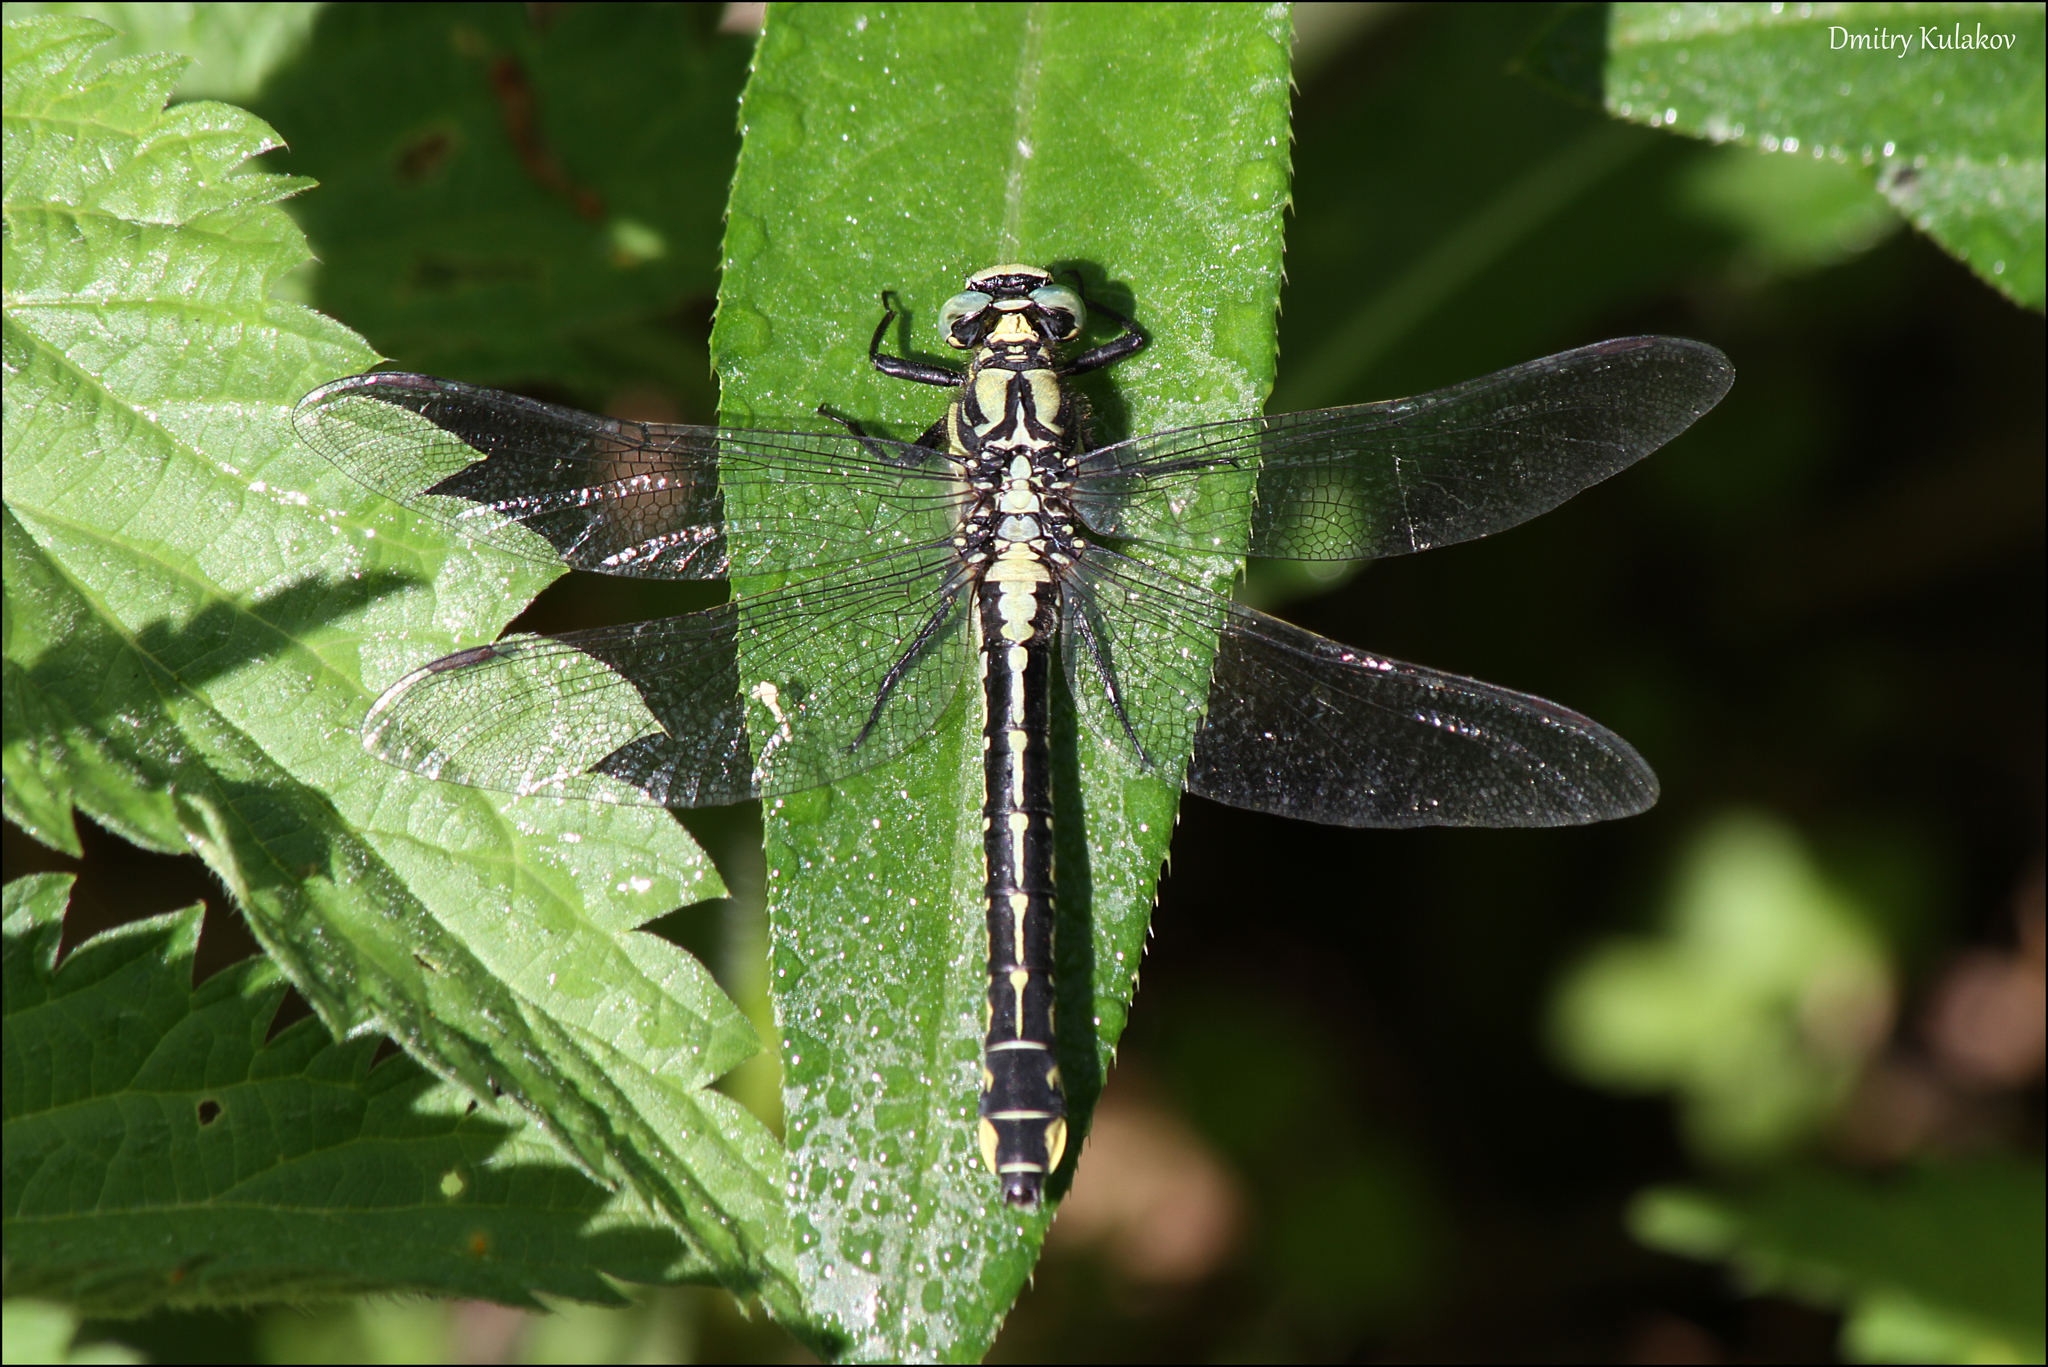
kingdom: Animalia
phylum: Arthropoda
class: Insecta
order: Odonata
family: Gomphidae
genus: Gomphus
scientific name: Gomphus vulgatissimus
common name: Club-tailed dragonfly
